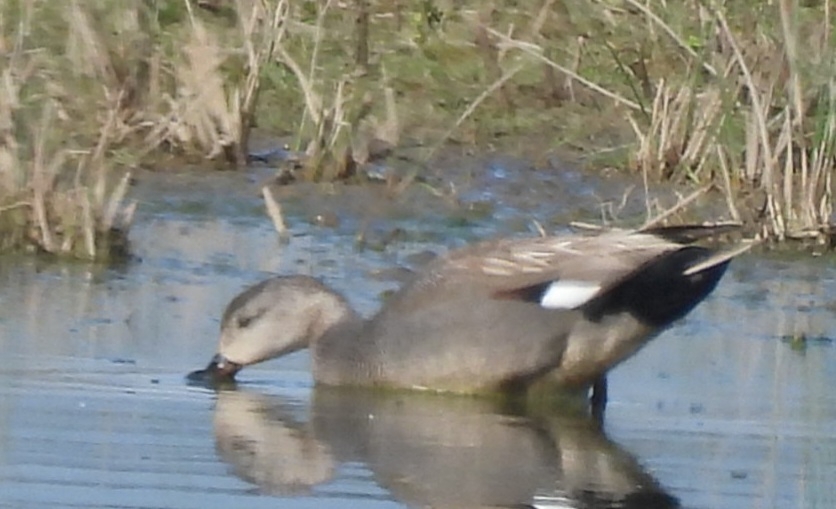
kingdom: Animalia
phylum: Chordata
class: Aves
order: Anseriformes
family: Anatidae
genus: Mareca
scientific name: Mareca strepera
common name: Gadwall
